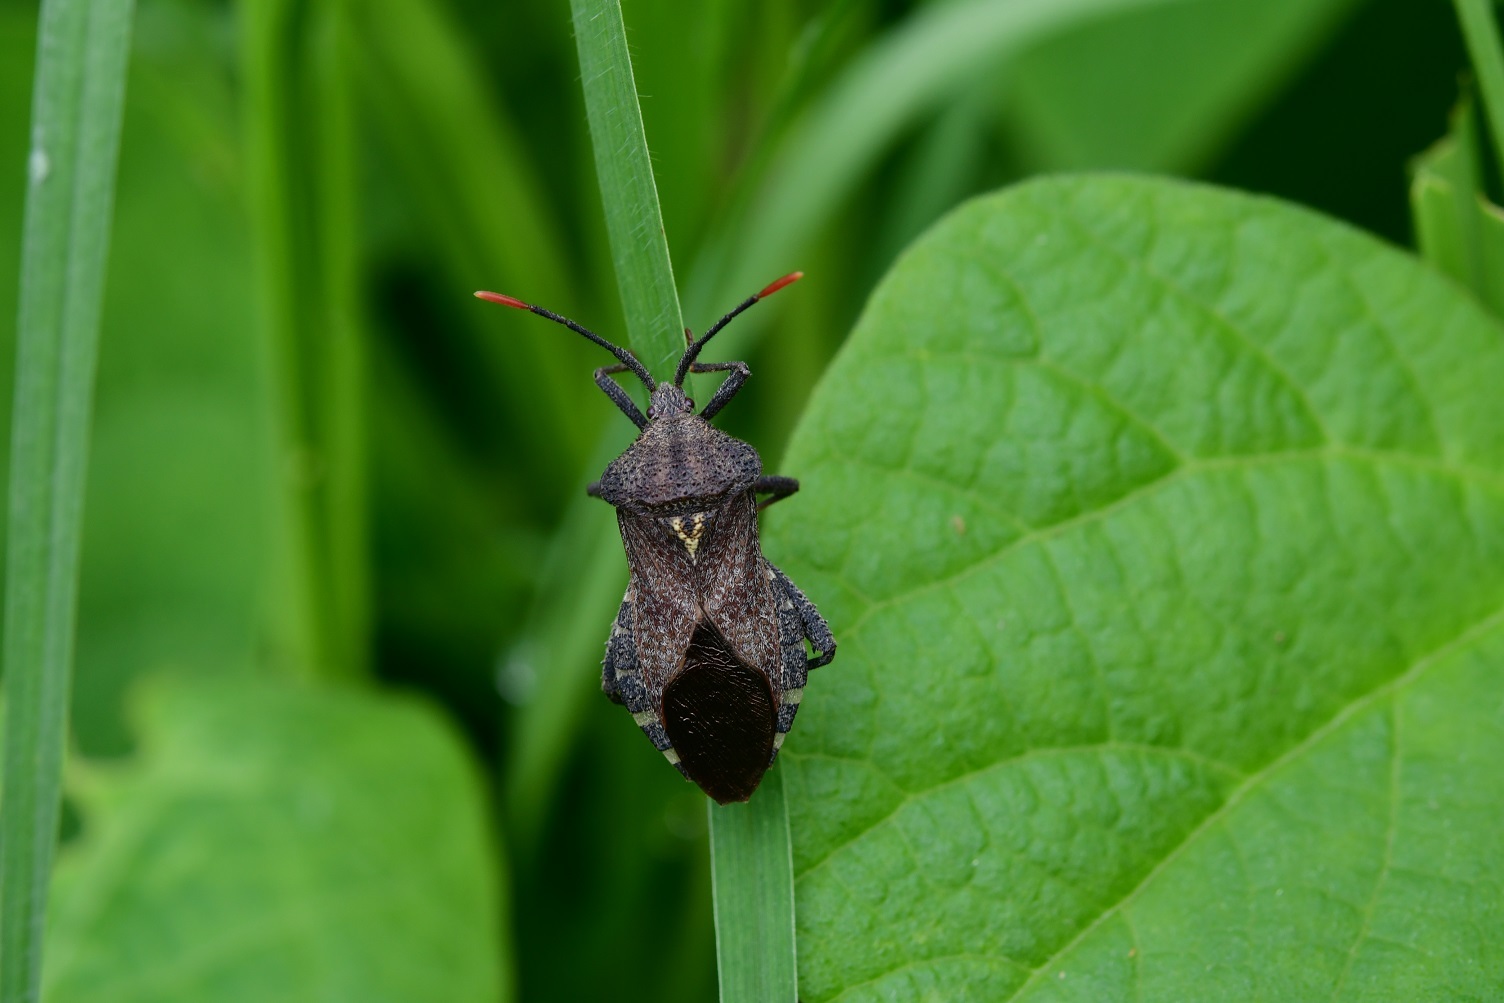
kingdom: Animalia
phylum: Arthropoda
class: Insecta
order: Hemiptera
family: Coreidae
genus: Piezogaster
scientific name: Piezogaster indecorus
